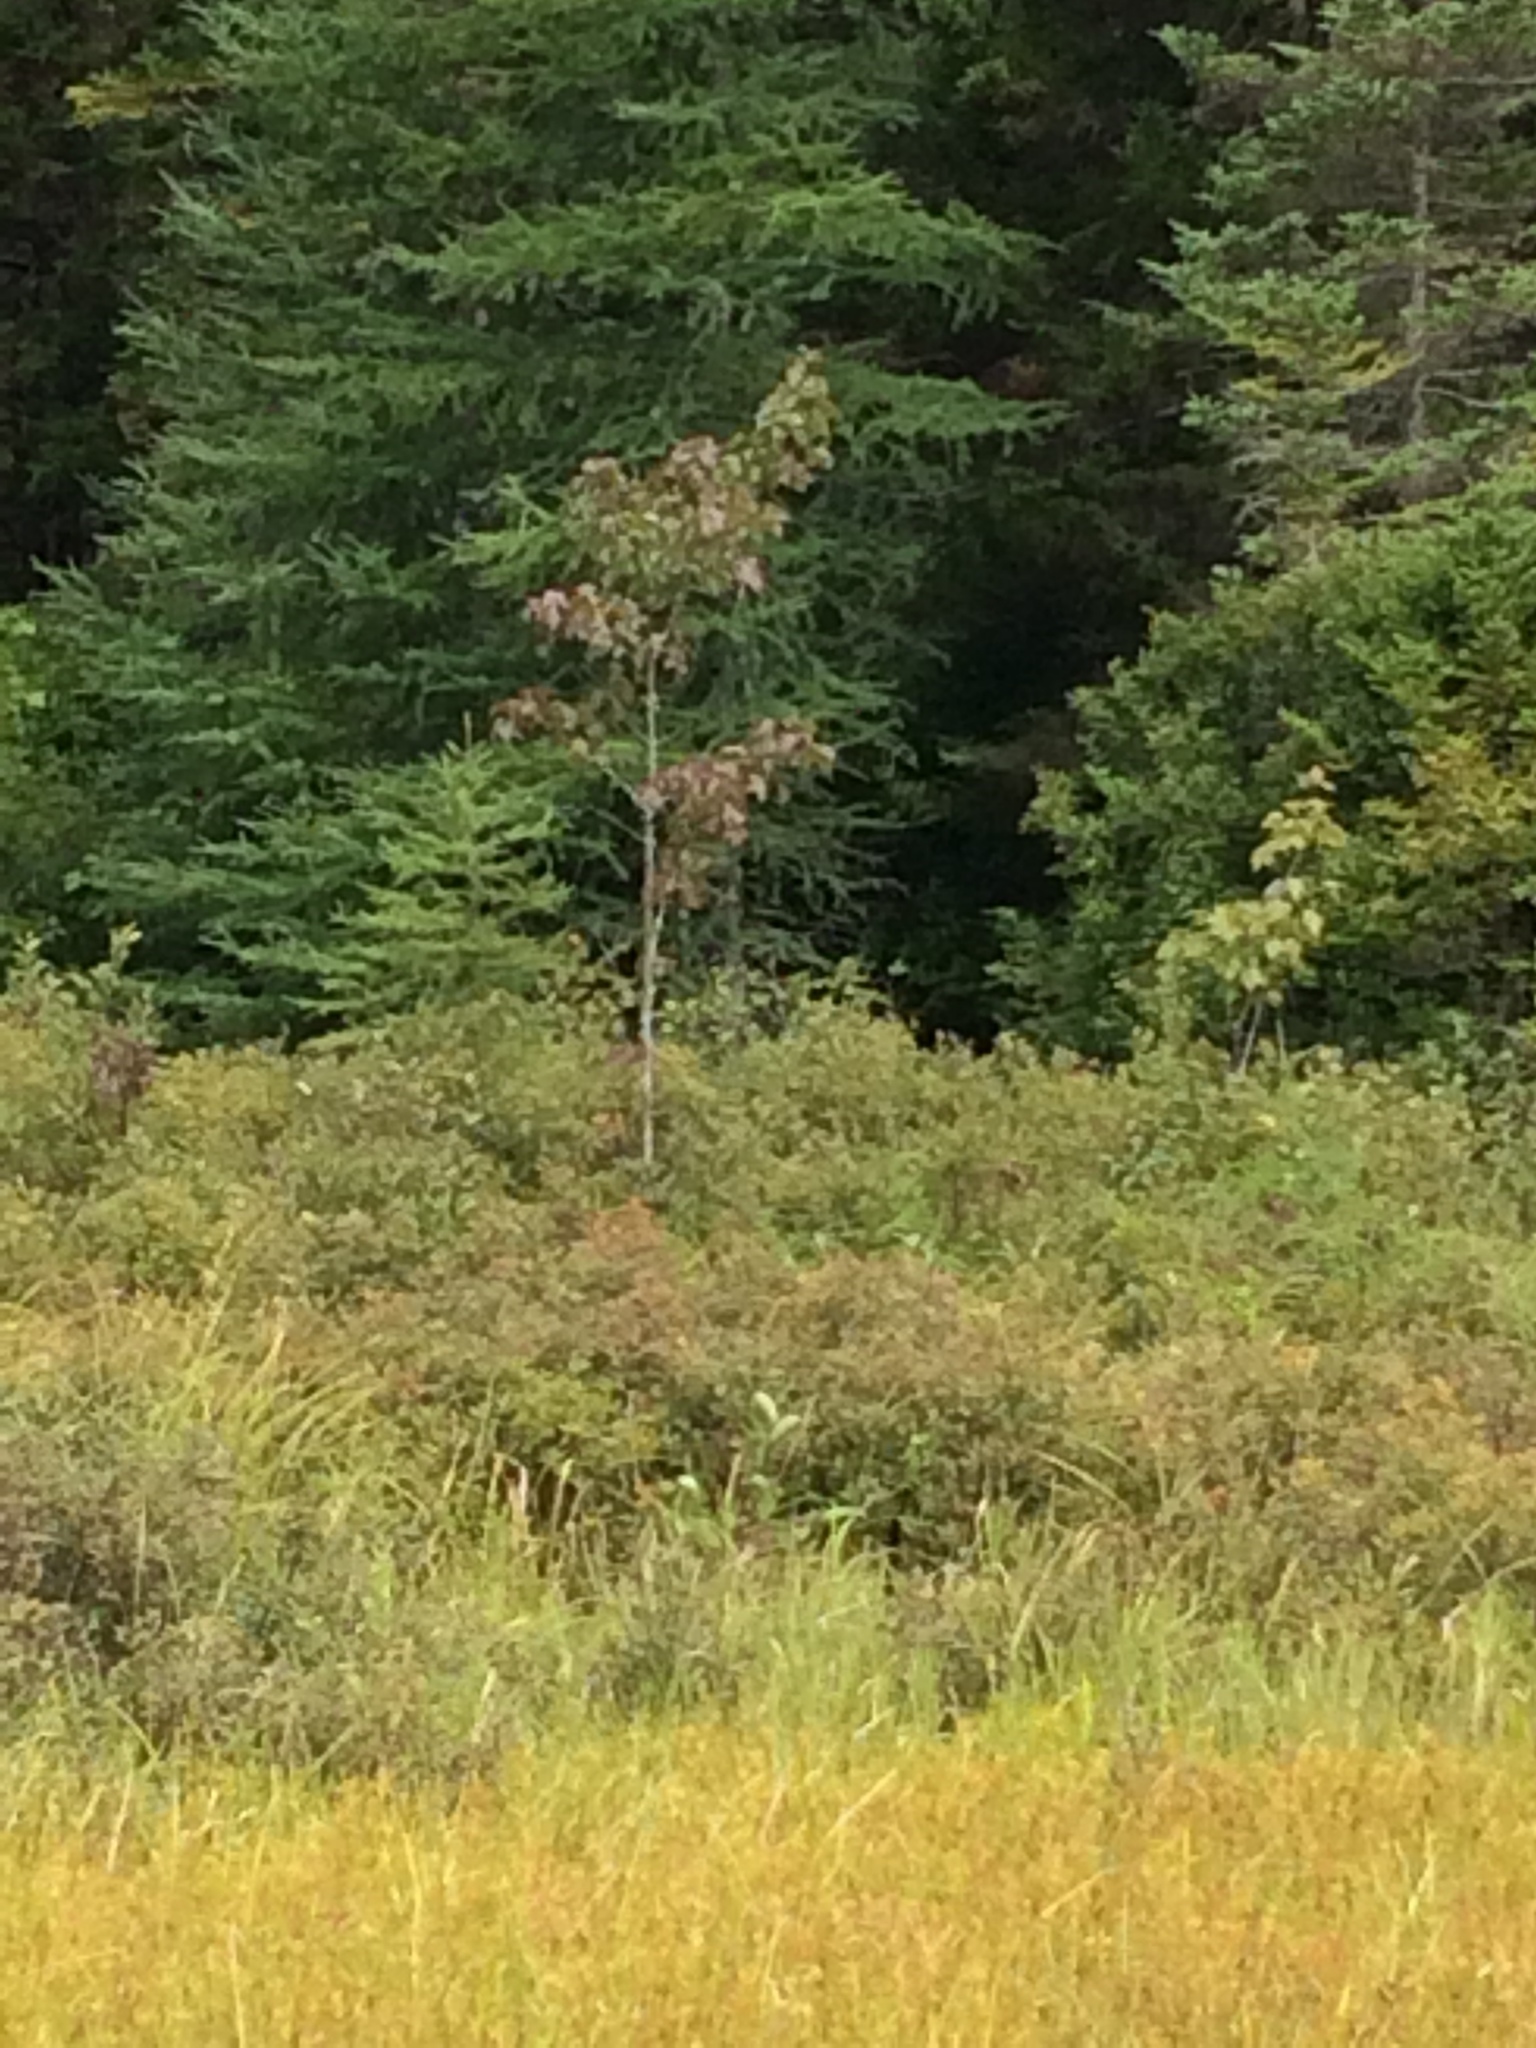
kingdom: Plantae
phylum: Tracheophyta
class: Magnoliopsida
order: Sapindales
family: Sapindaceae
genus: Acer
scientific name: Acer rubrum
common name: Red maple
